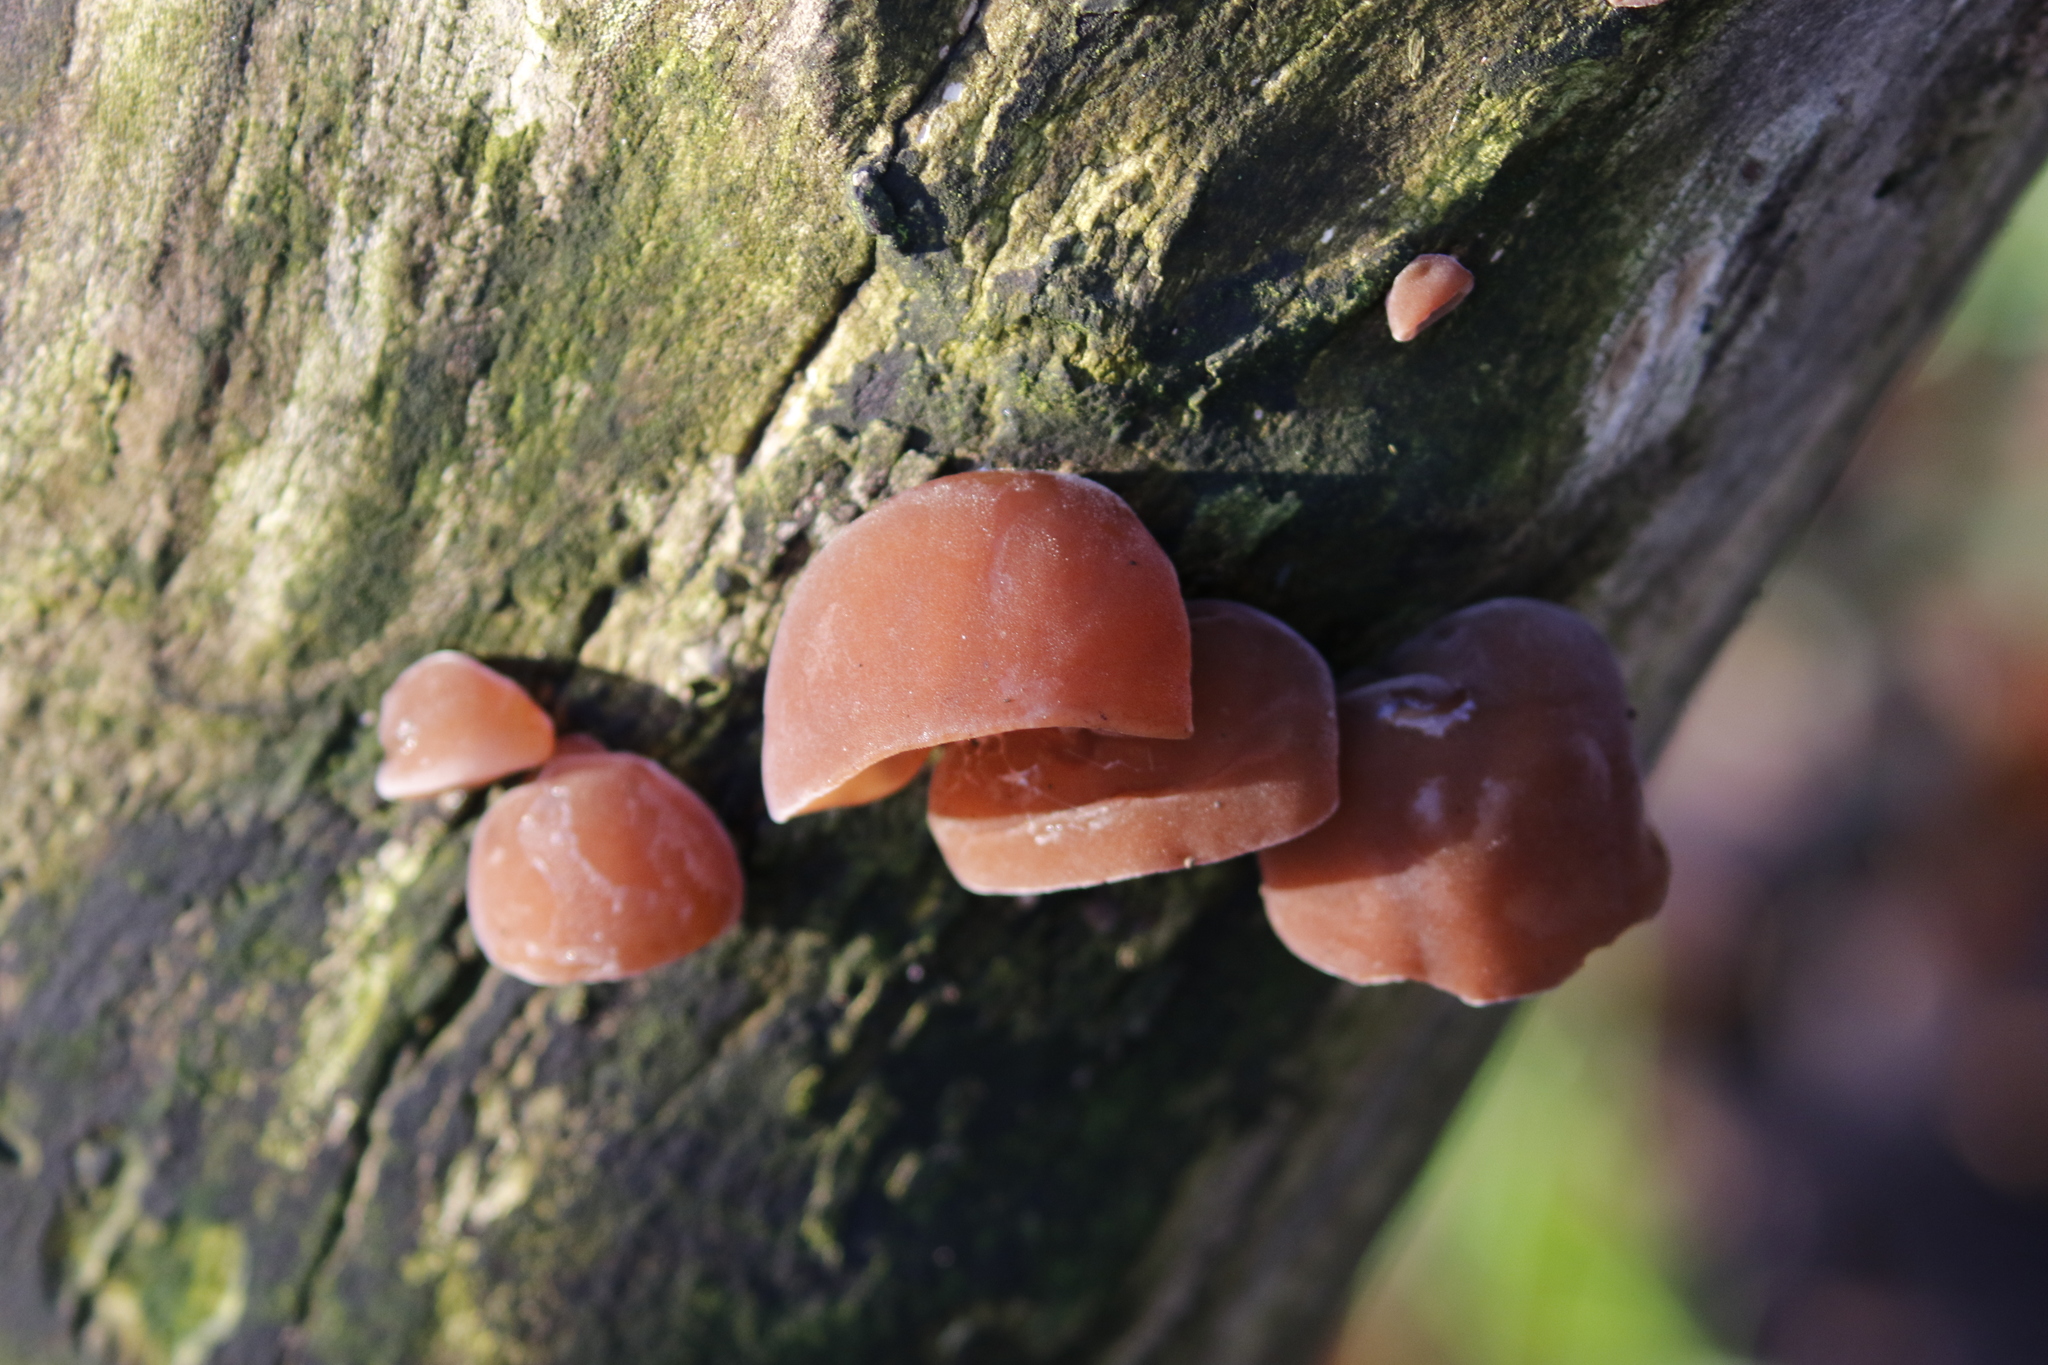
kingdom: Fungi
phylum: Basidiomycota
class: Agaricomycetes
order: Auriculariales
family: Auriculariaceae
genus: Auricularia
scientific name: Auricularia auricula-judae
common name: Jelly ear
